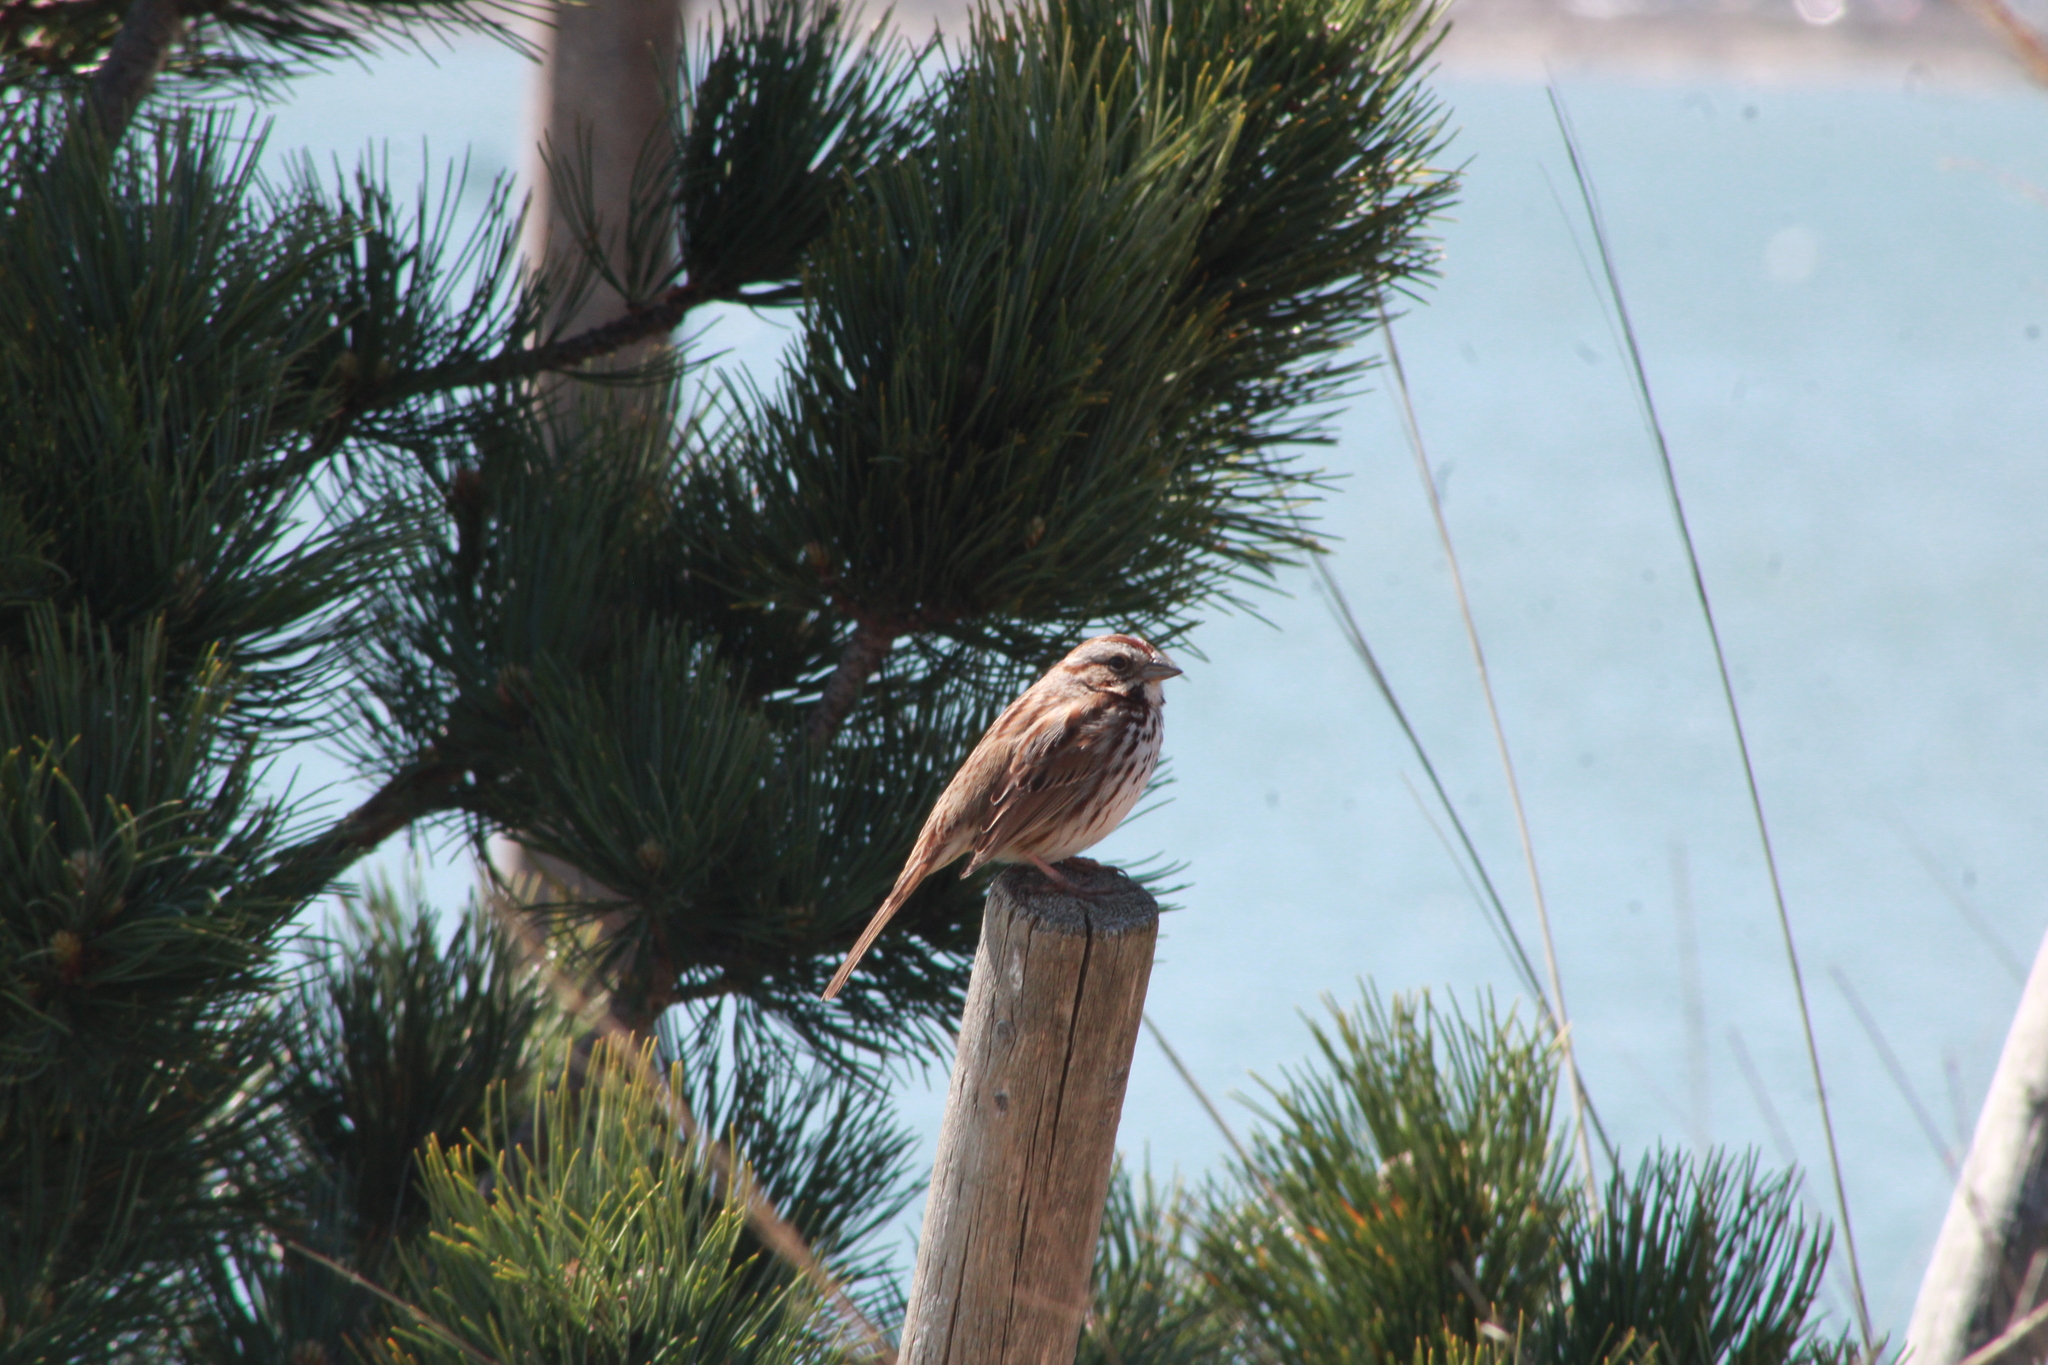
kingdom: Animalia
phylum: Chordata
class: Aves
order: Passeriformes
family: Passerellidae
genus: Melospiza
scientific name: Melospiza melodia
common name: Song sparrow
